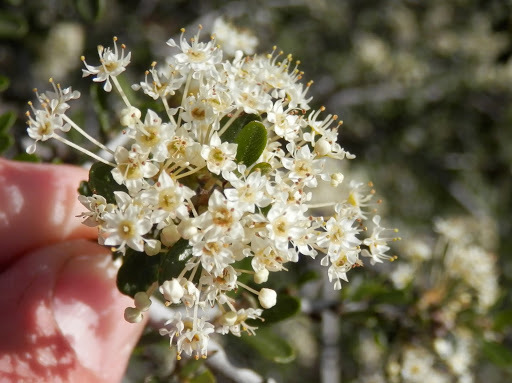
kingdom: Plantae
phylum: Tracheophyta
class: Magnoliopsida
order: Rosales
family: Rhamnaceae
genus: Ceanothus
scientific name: Ceanothus cuneatus
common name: Cuneate ceanothus
